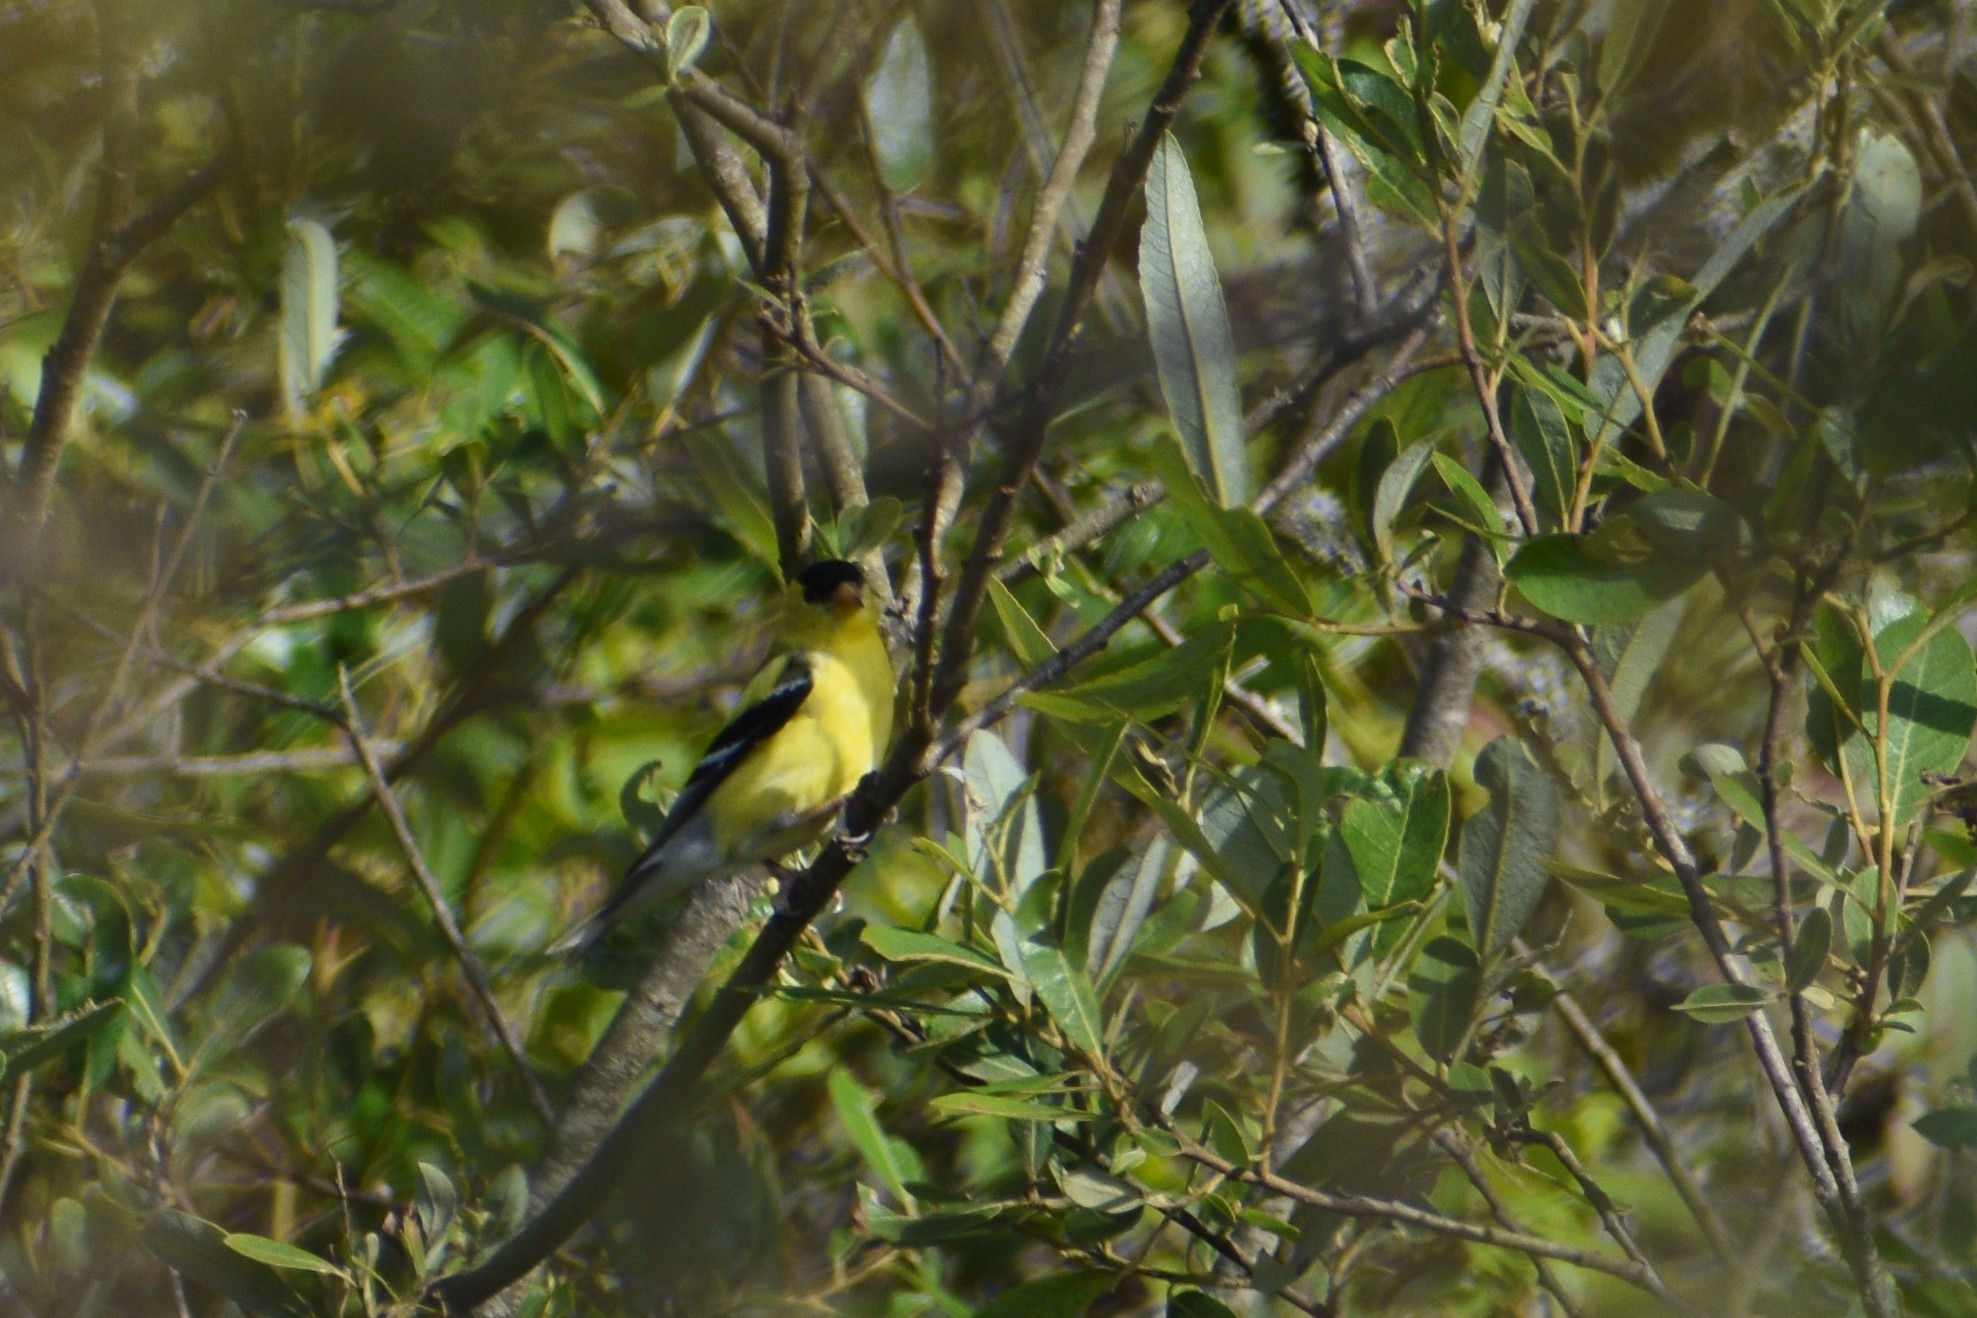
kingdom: Animalia
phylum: Chordata
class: Aves
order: Passeriformes
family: Fringillidae
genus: Spinus
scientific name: Spinus tristis
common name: American goldfinch
